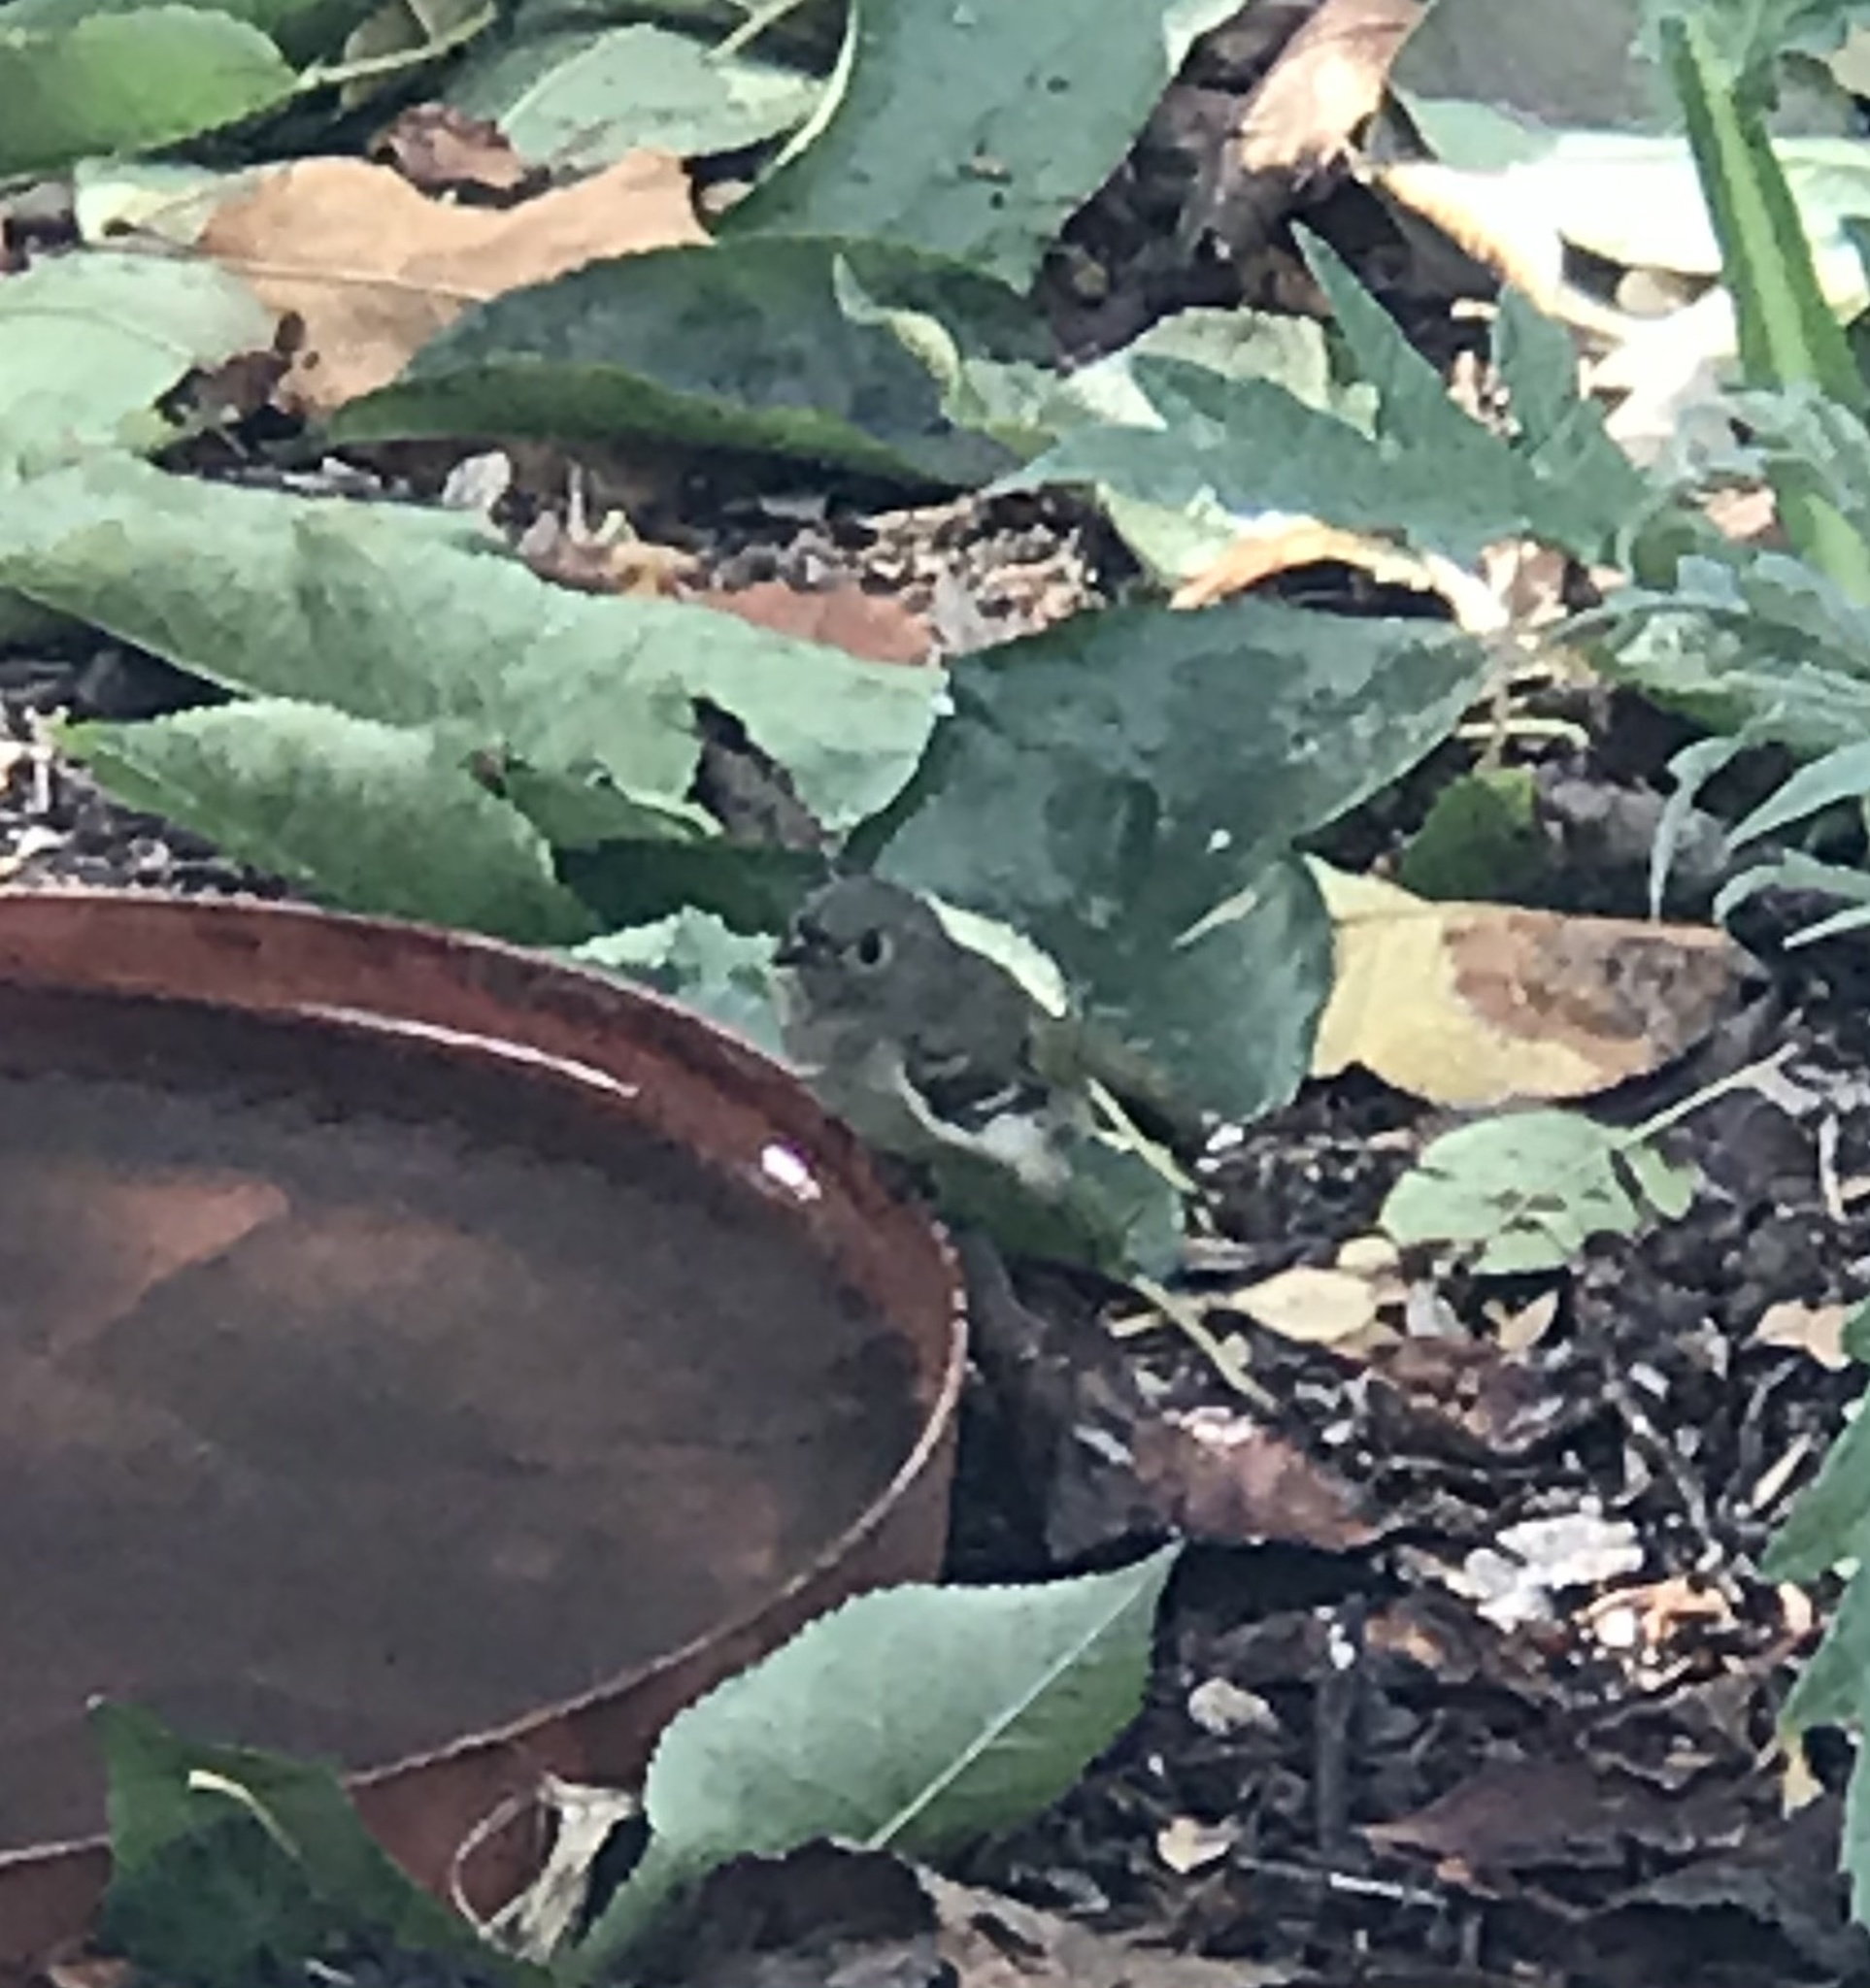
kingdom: Animalia
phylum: Chordata
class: Aves
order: Passeriformes
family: Regulidae
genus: Regulus
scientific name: Regulus calendula
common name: Ruby-crowned kinglet
